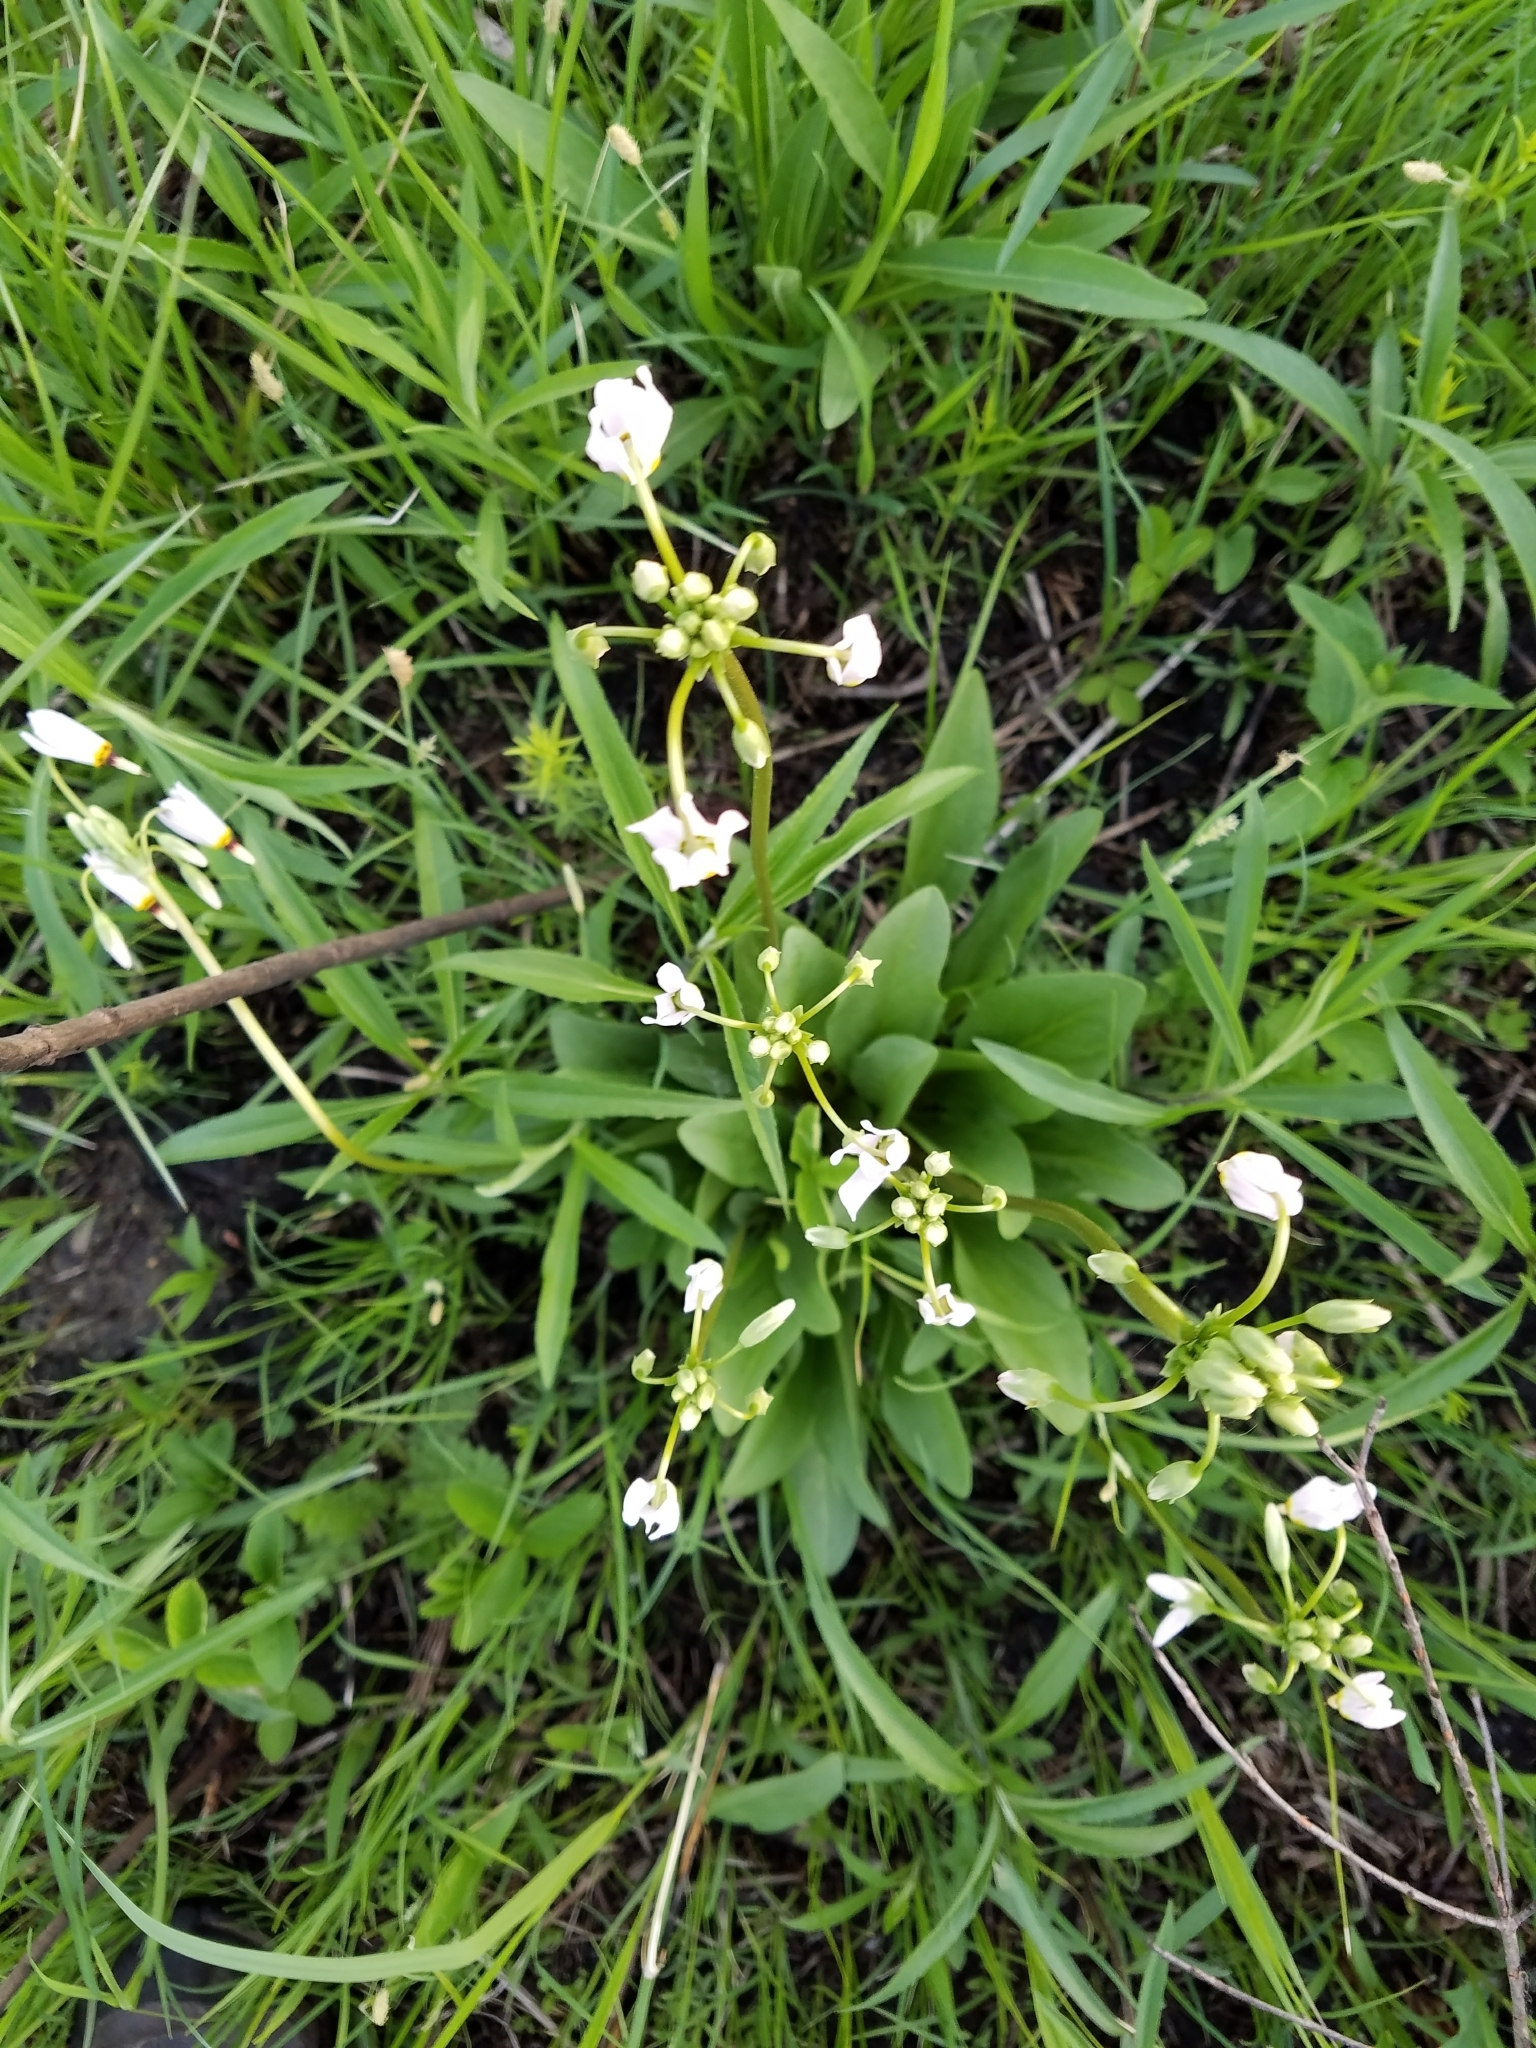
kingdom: Plantae
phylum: Tracheophyta
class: Magnoliopsida
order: Ericales
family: Primulaceae
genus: Dodecatheon
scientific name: Dodecatheon meadia
